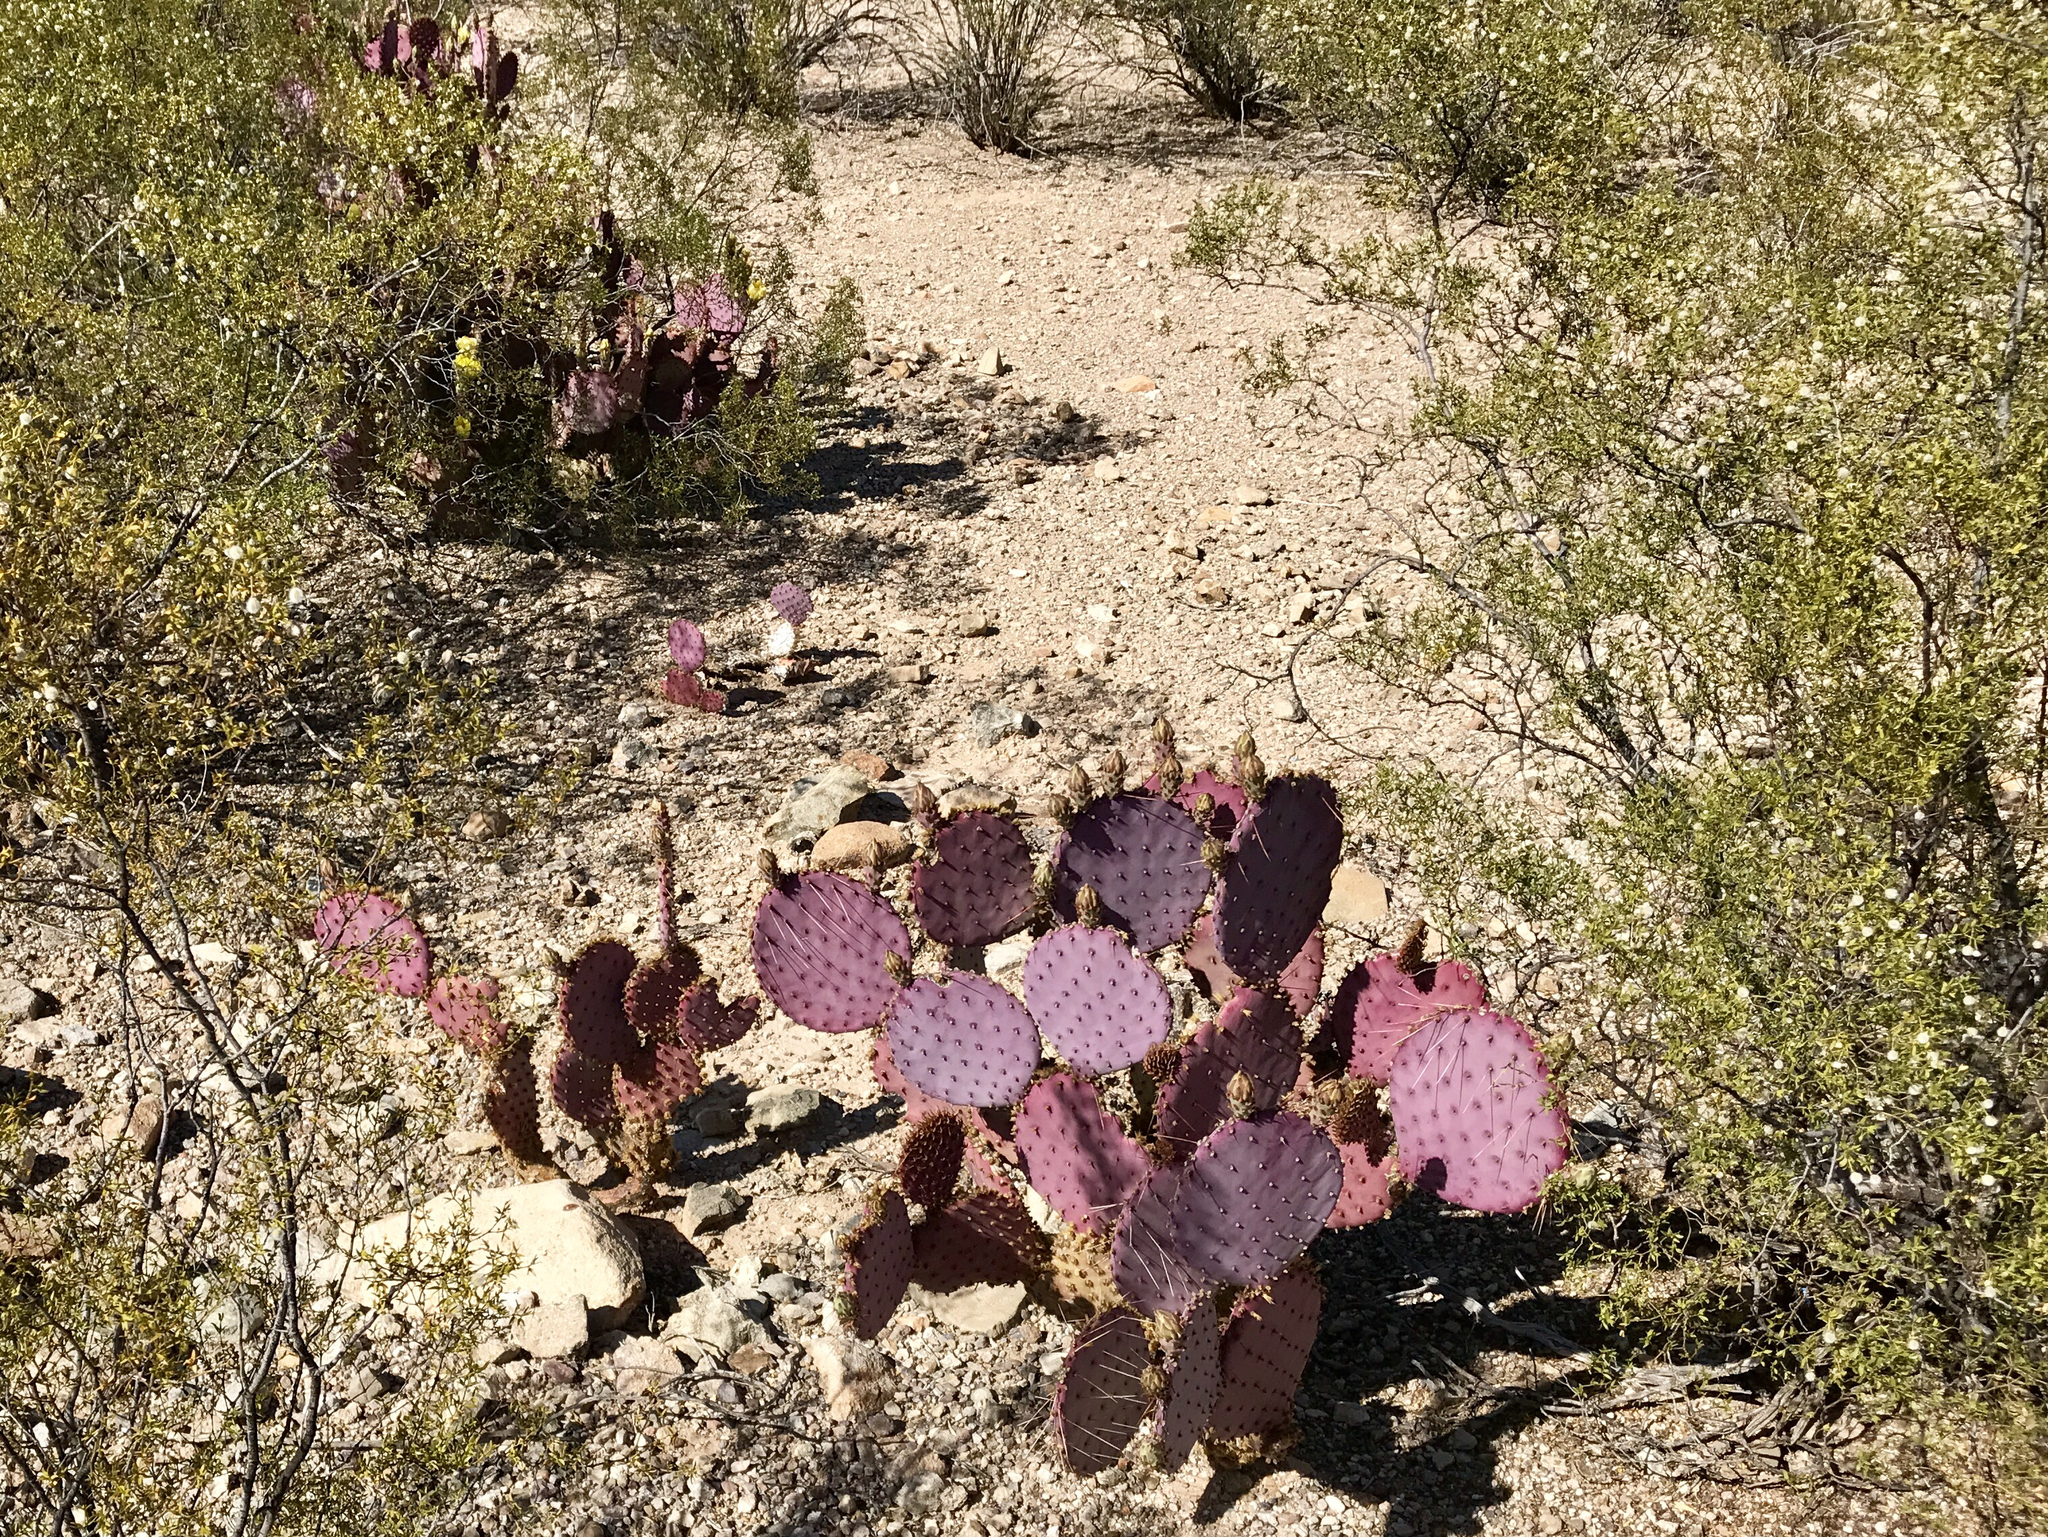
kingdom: Plantae
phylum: Tracheophyta
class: Magnoliopsida
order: Caryophyllales
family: Cactaceae
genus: Opuntia
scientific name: Opuntia gosseliniana
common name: Violet prickly-pear
